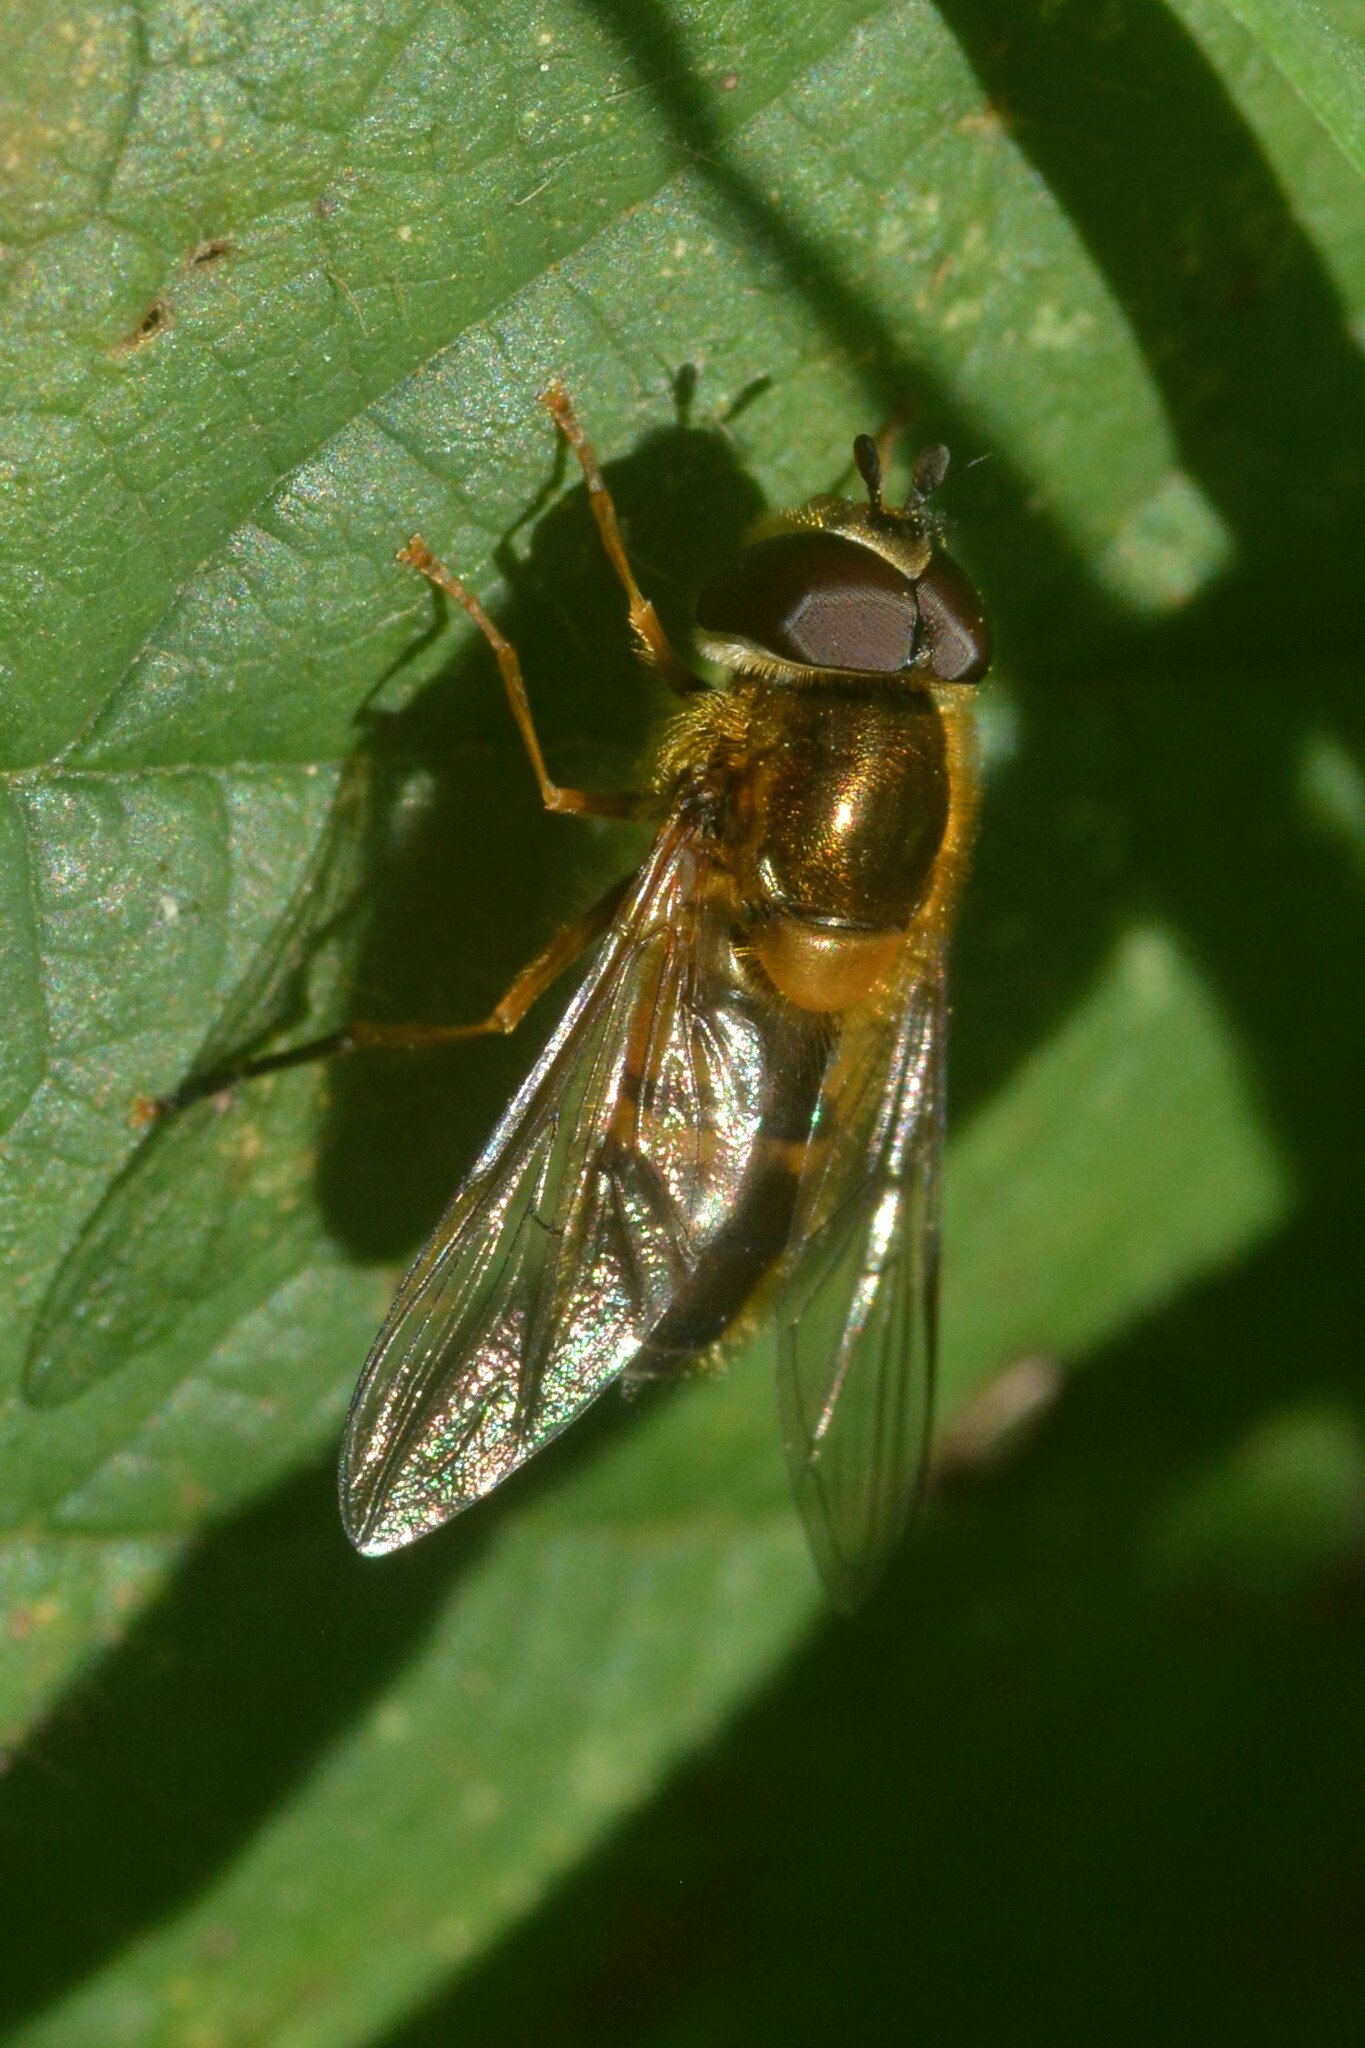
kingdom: Animalia
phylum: Arthropoda
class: Insecta
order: Diptera
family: Syrphidae
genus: Epistrophe
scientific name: Epistrophe eligans
